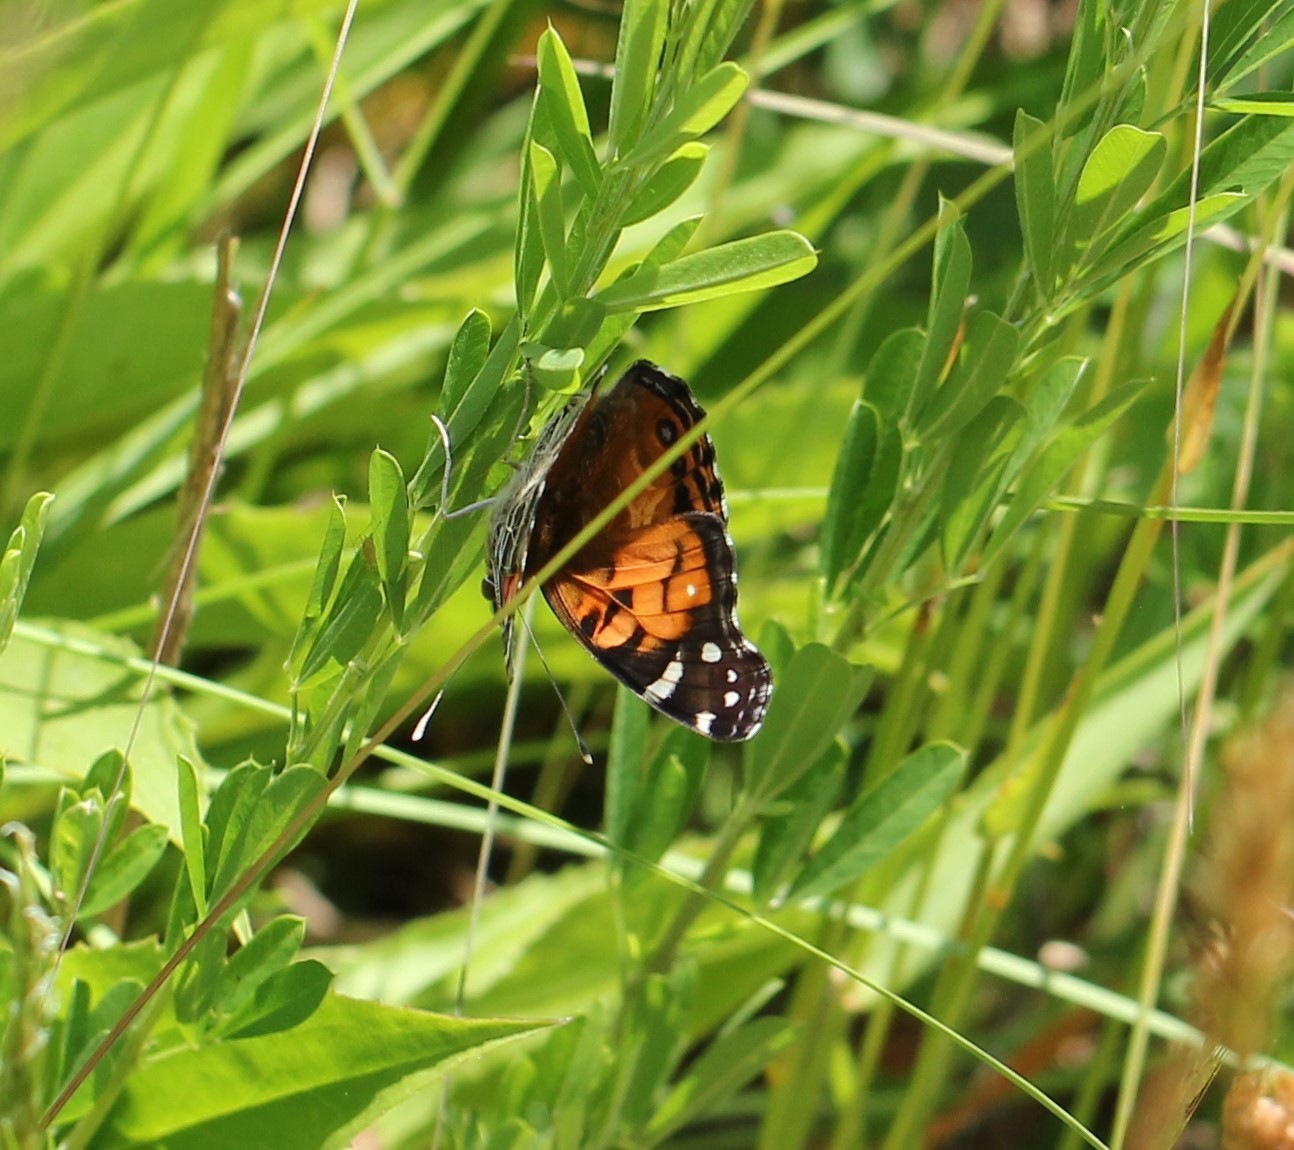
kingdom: Animalia
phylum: Arthropoda
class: Insecta
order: Lepidoptera
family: Nymphalidae
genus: Vanessa
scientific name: Vanessa virginiensis
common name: American lady
